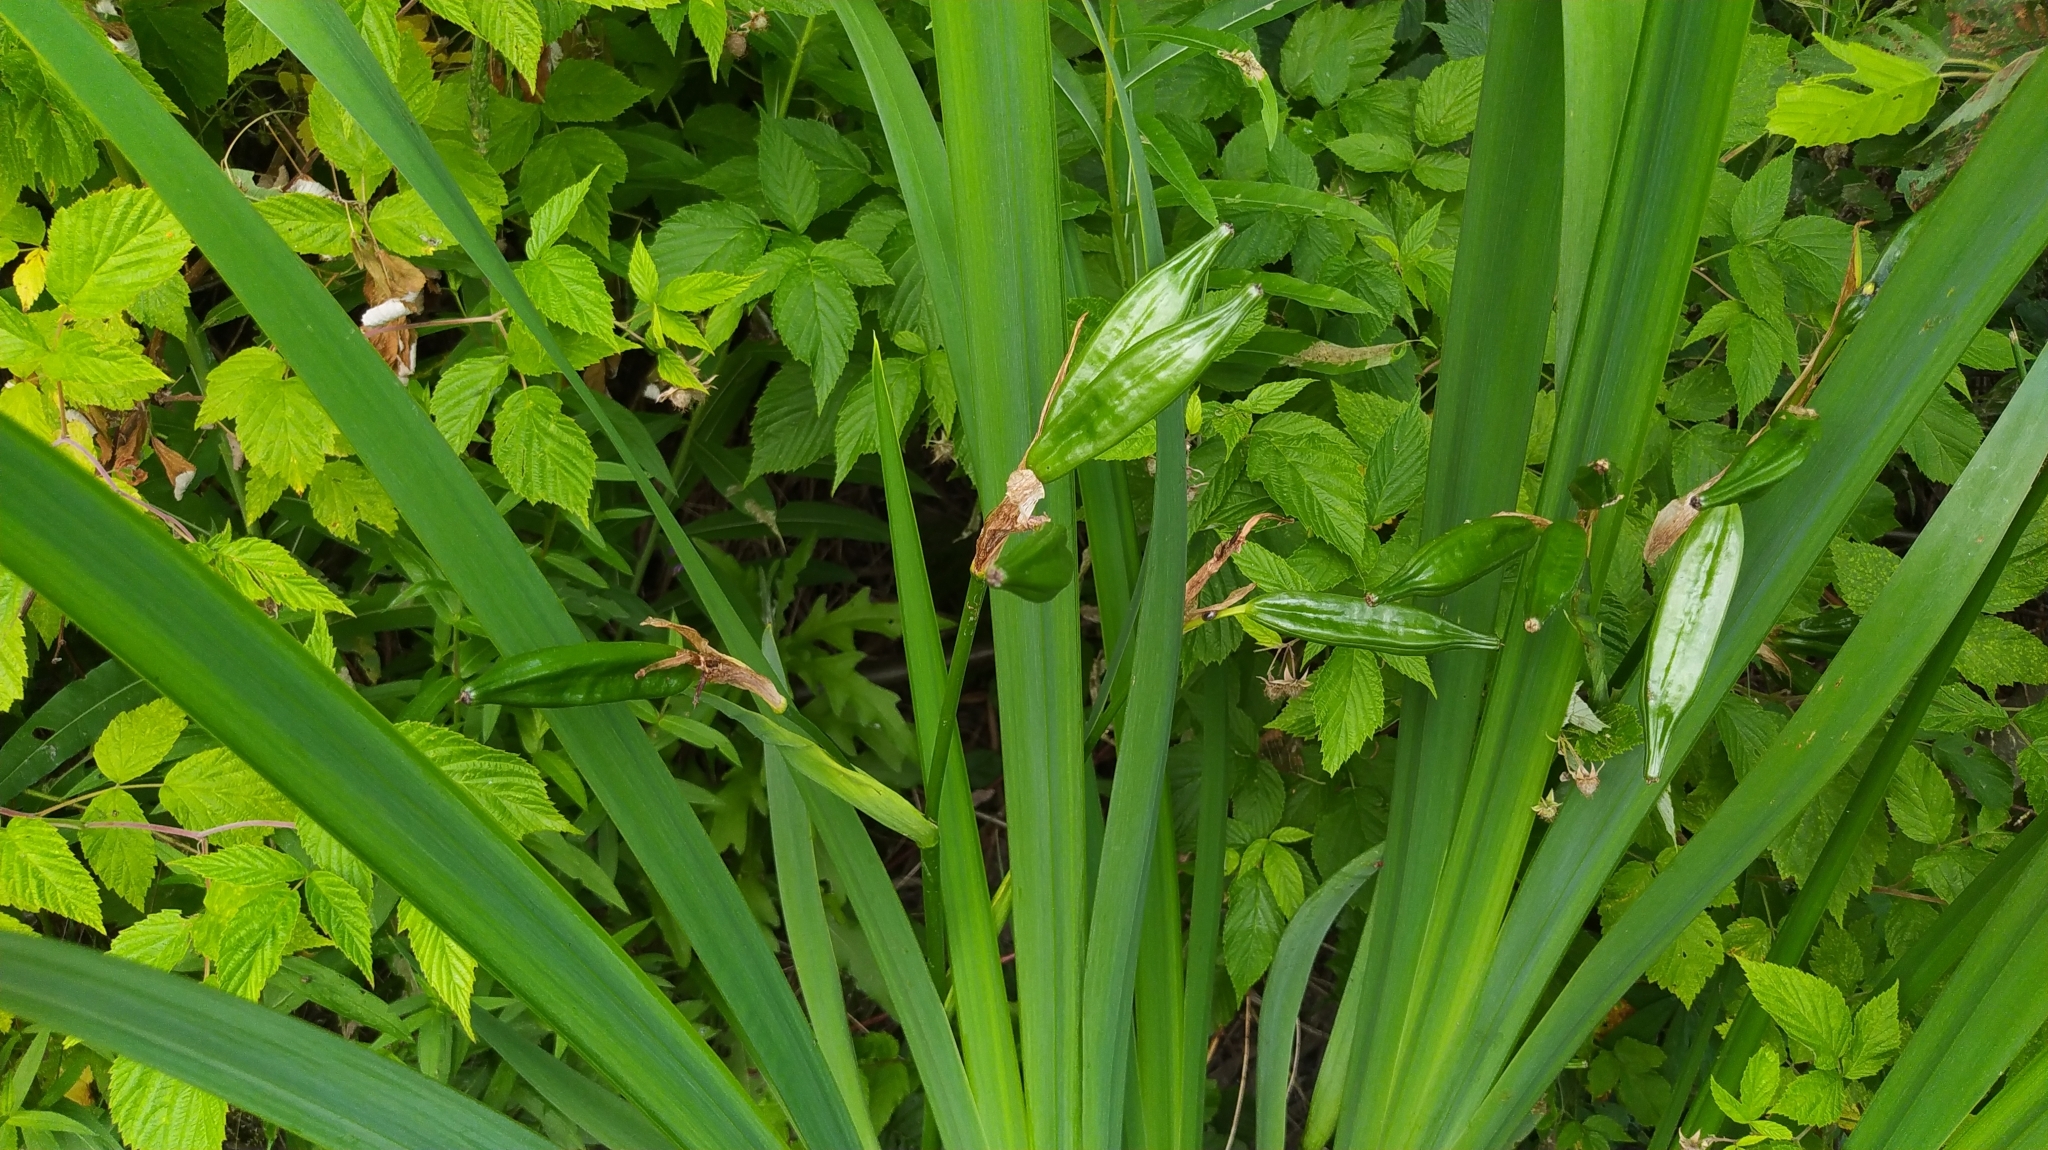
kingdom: Plantae
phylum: Tracheophyta
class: Liliopsida
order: Asparagales
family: Iridaceae
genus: Iris
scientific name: Iris pseudacorus
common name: Yellow flag
